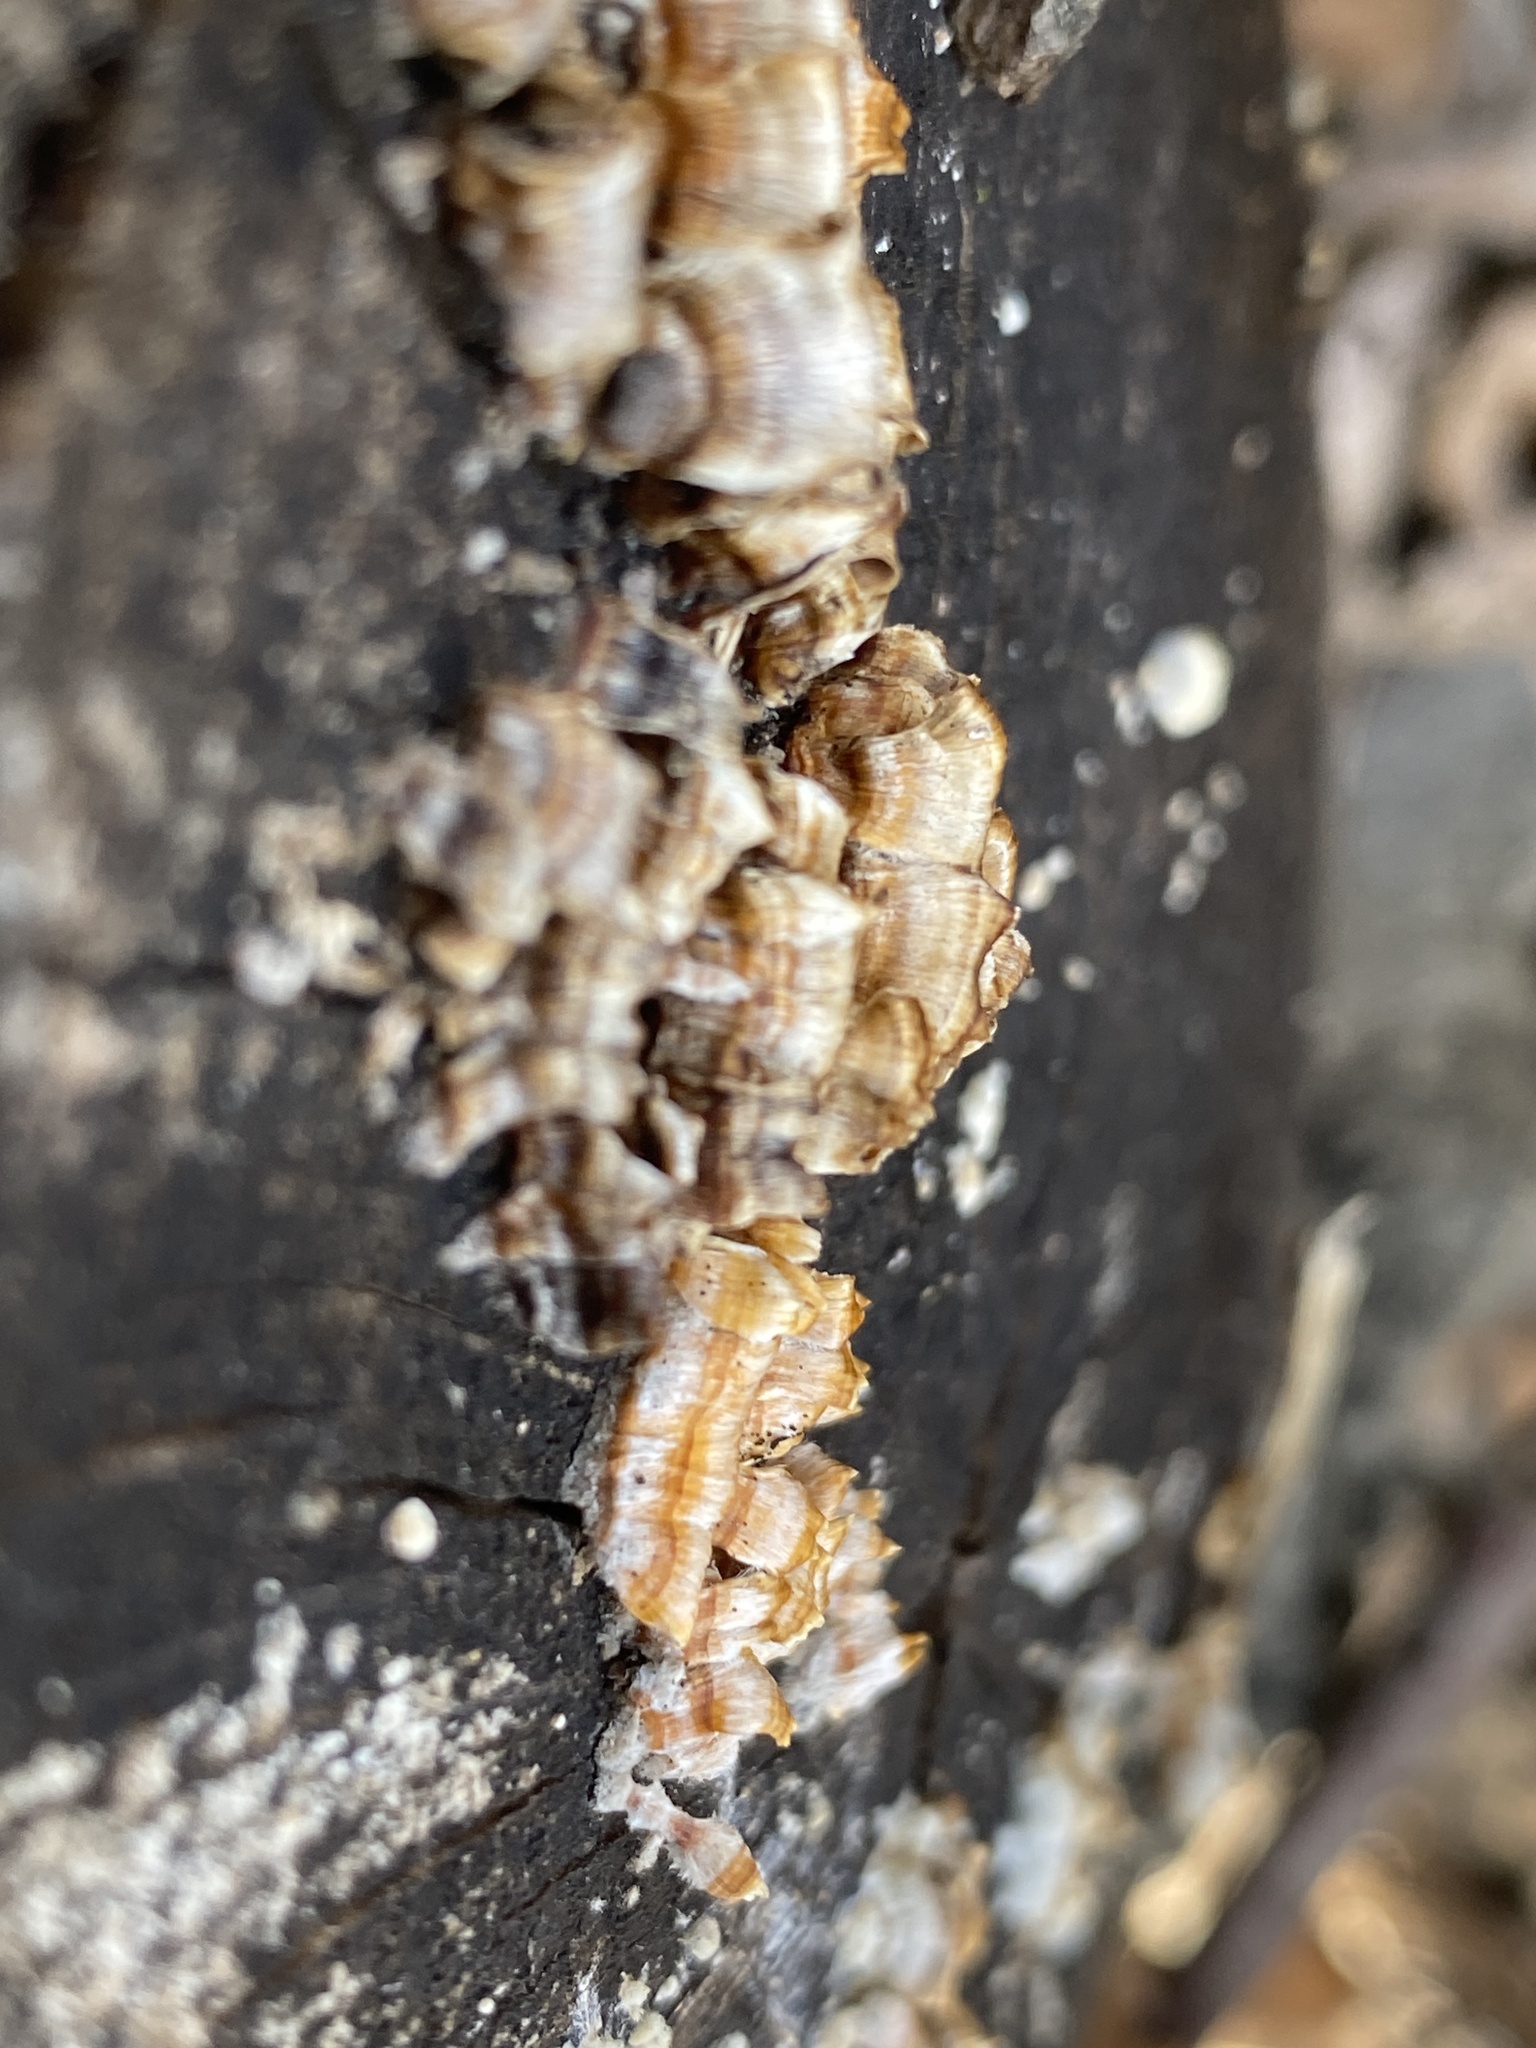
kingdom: Fungi
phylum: Basidiomycota
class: Agaricomycetes
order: Russulales
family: Stereaceae
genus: Stereum
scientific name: Stereum complicatum
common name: Crowded parchment
